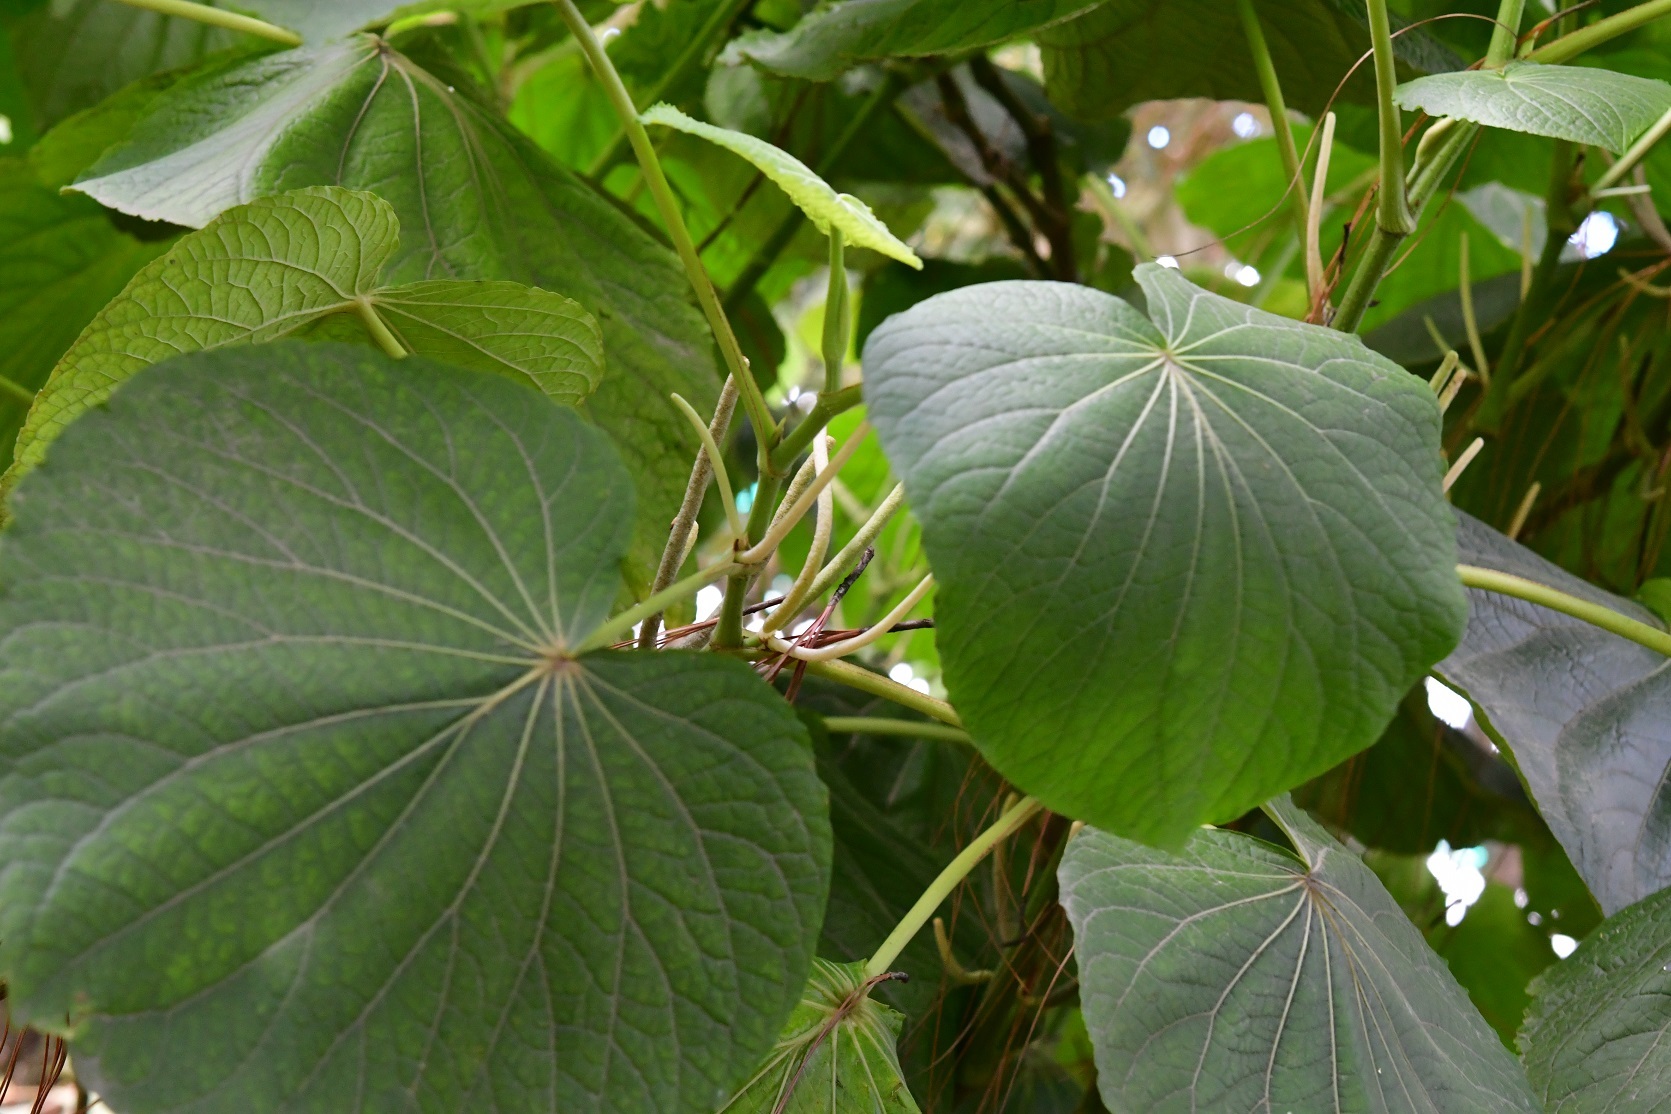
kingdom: Plantae
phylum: Tracheophyta
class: Magnoliopsida
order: Piperales
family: Piperaceae
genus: Piper
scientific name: Piper umbellatum
